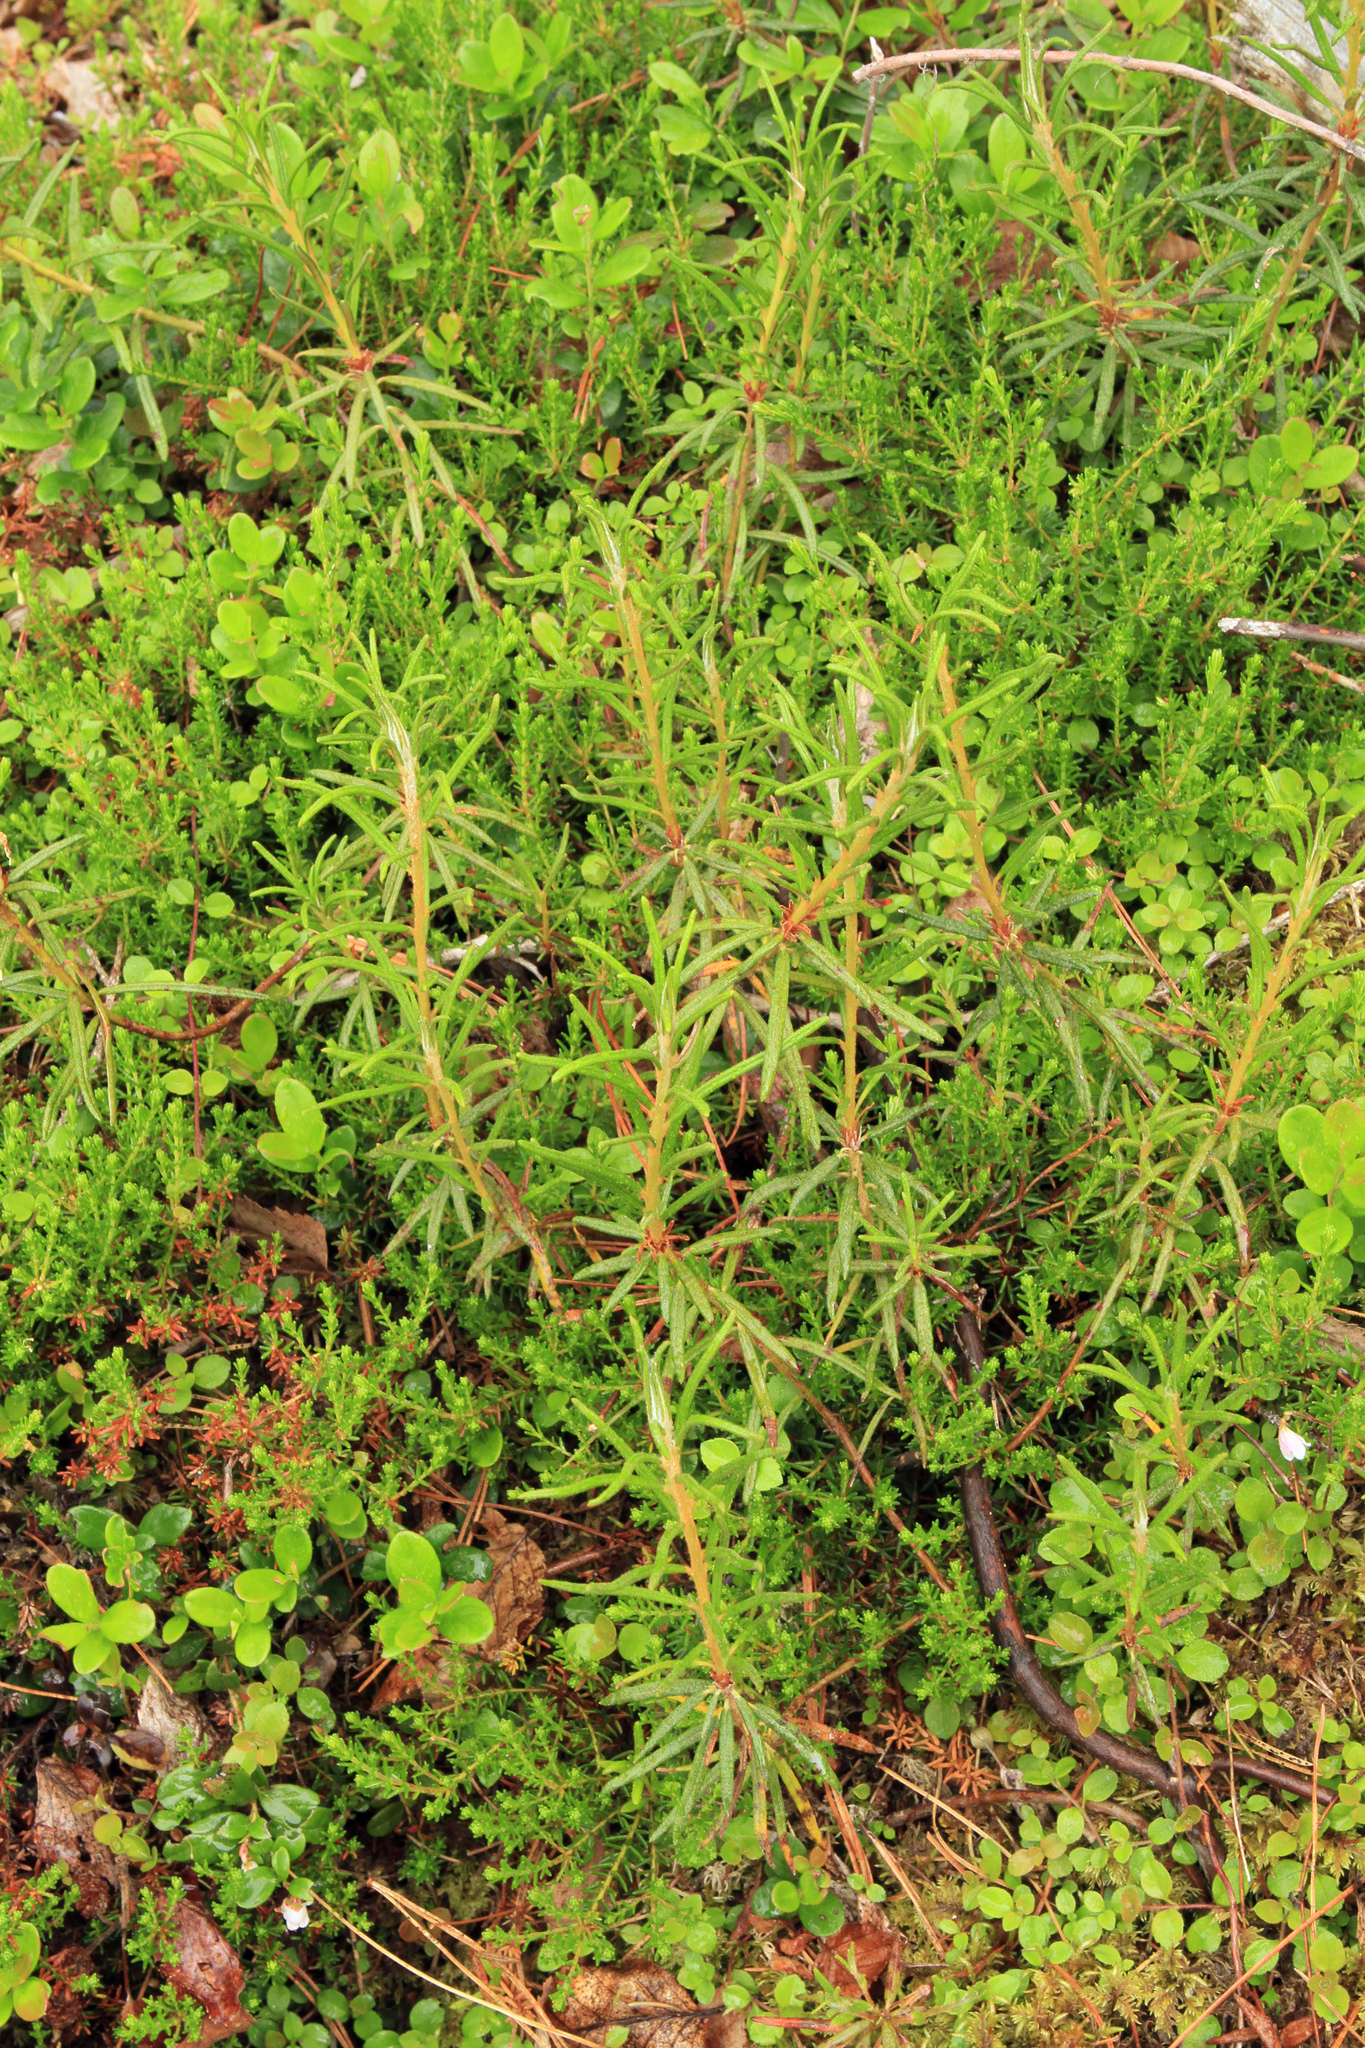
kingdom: Plantae
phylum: Tracheophyta
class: Magnoliopsida
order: Ericales
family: Ericaceae
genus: Rhododendron
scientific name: Rhododendron tomentosum
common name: Marsh labrador tea
